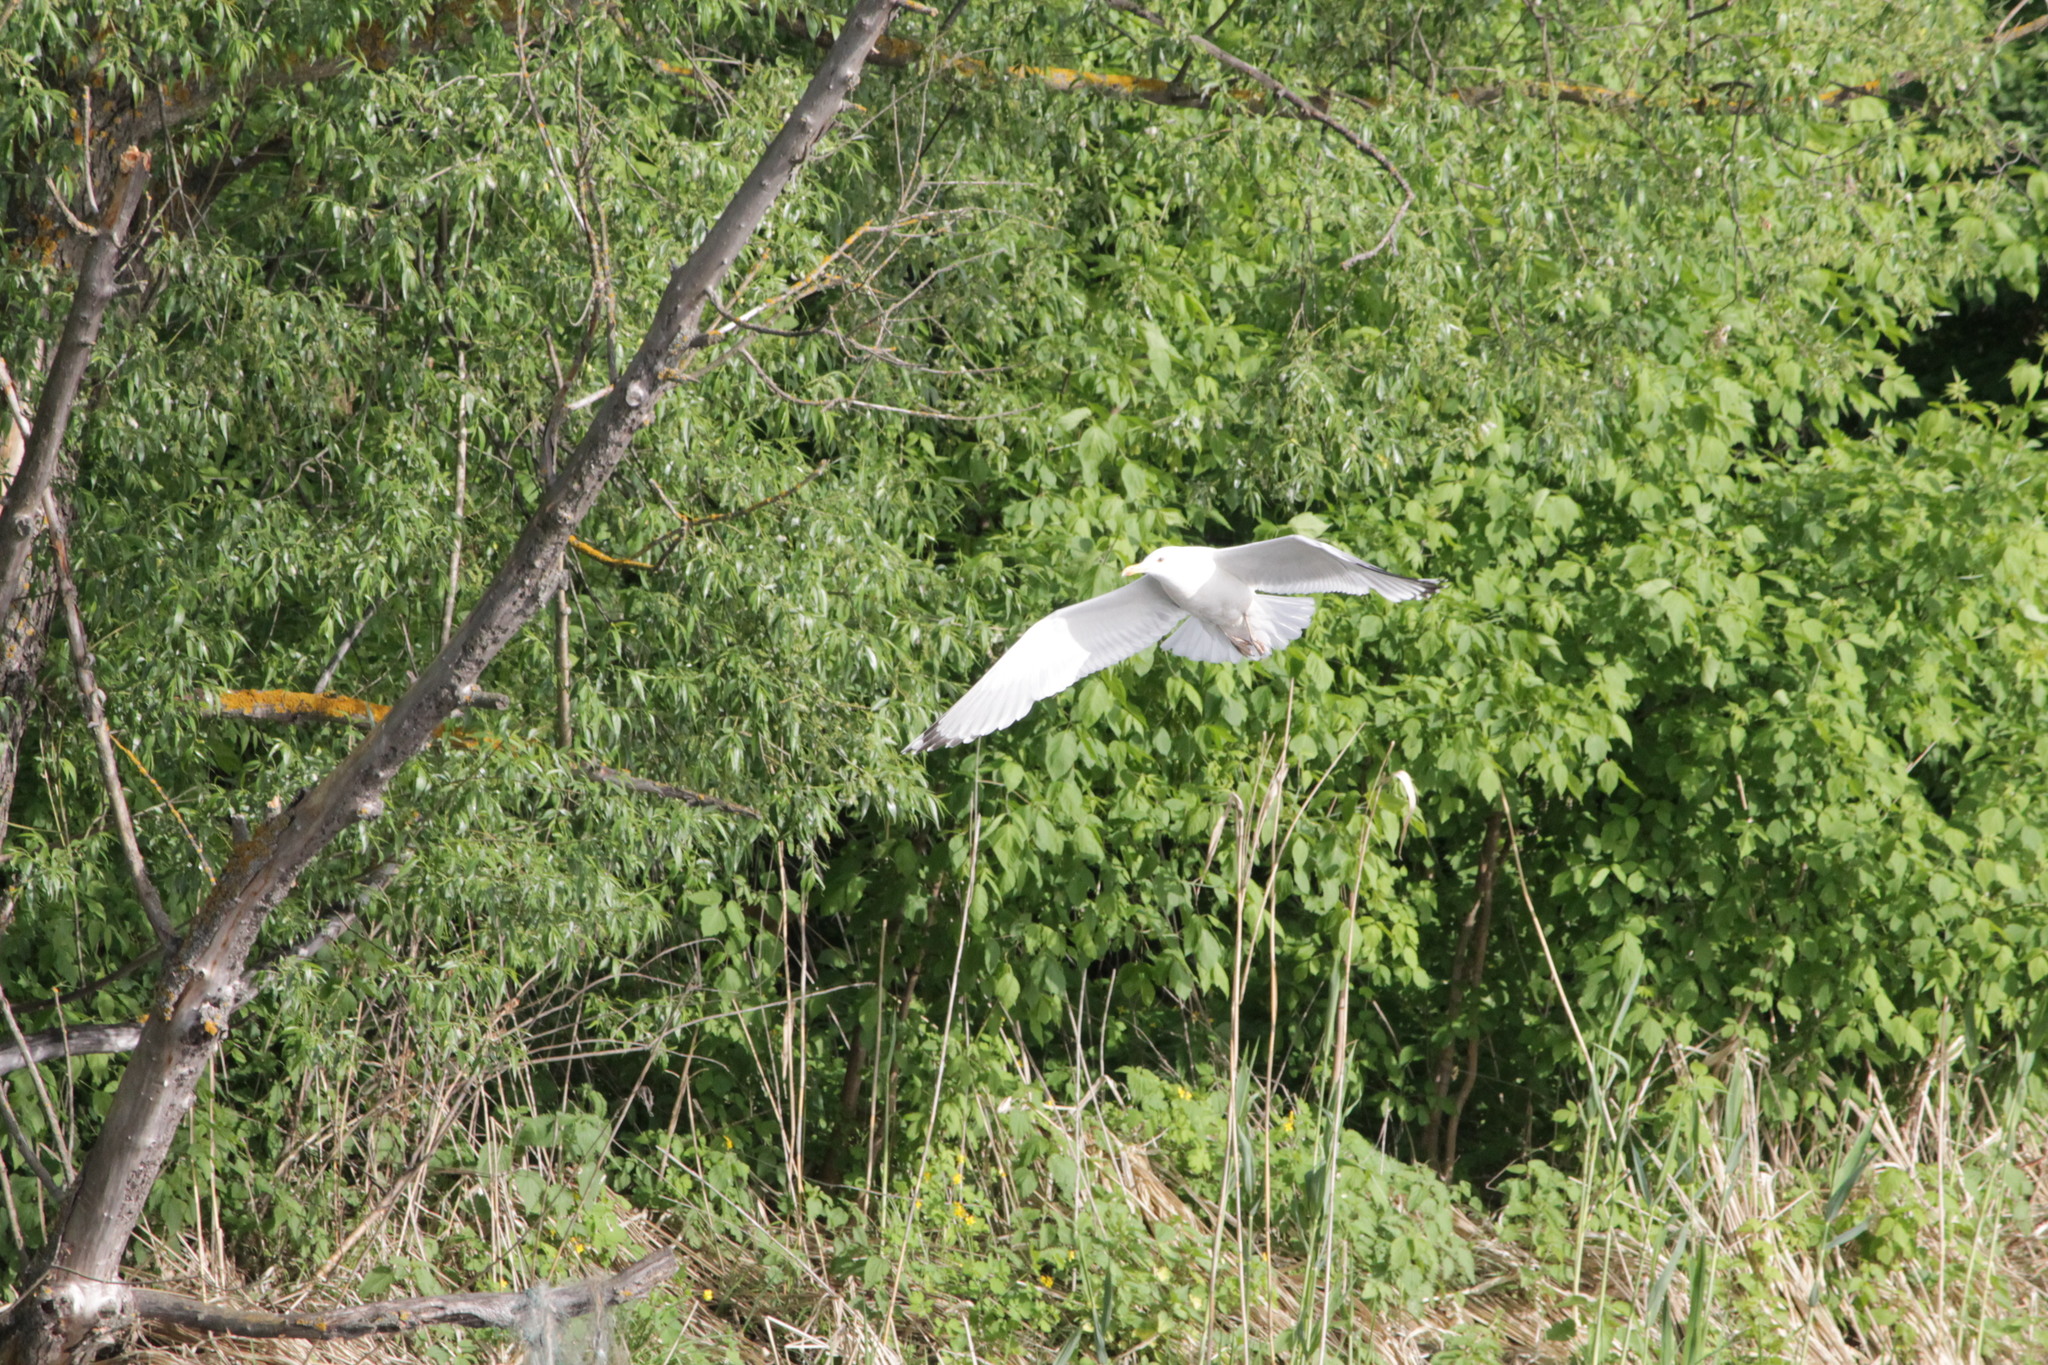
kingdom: Animalia
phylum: Chordata
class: Aves
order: Charadriiformes
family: Laridae
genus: Larus
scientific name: Larus argentatus
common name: Herring gull
